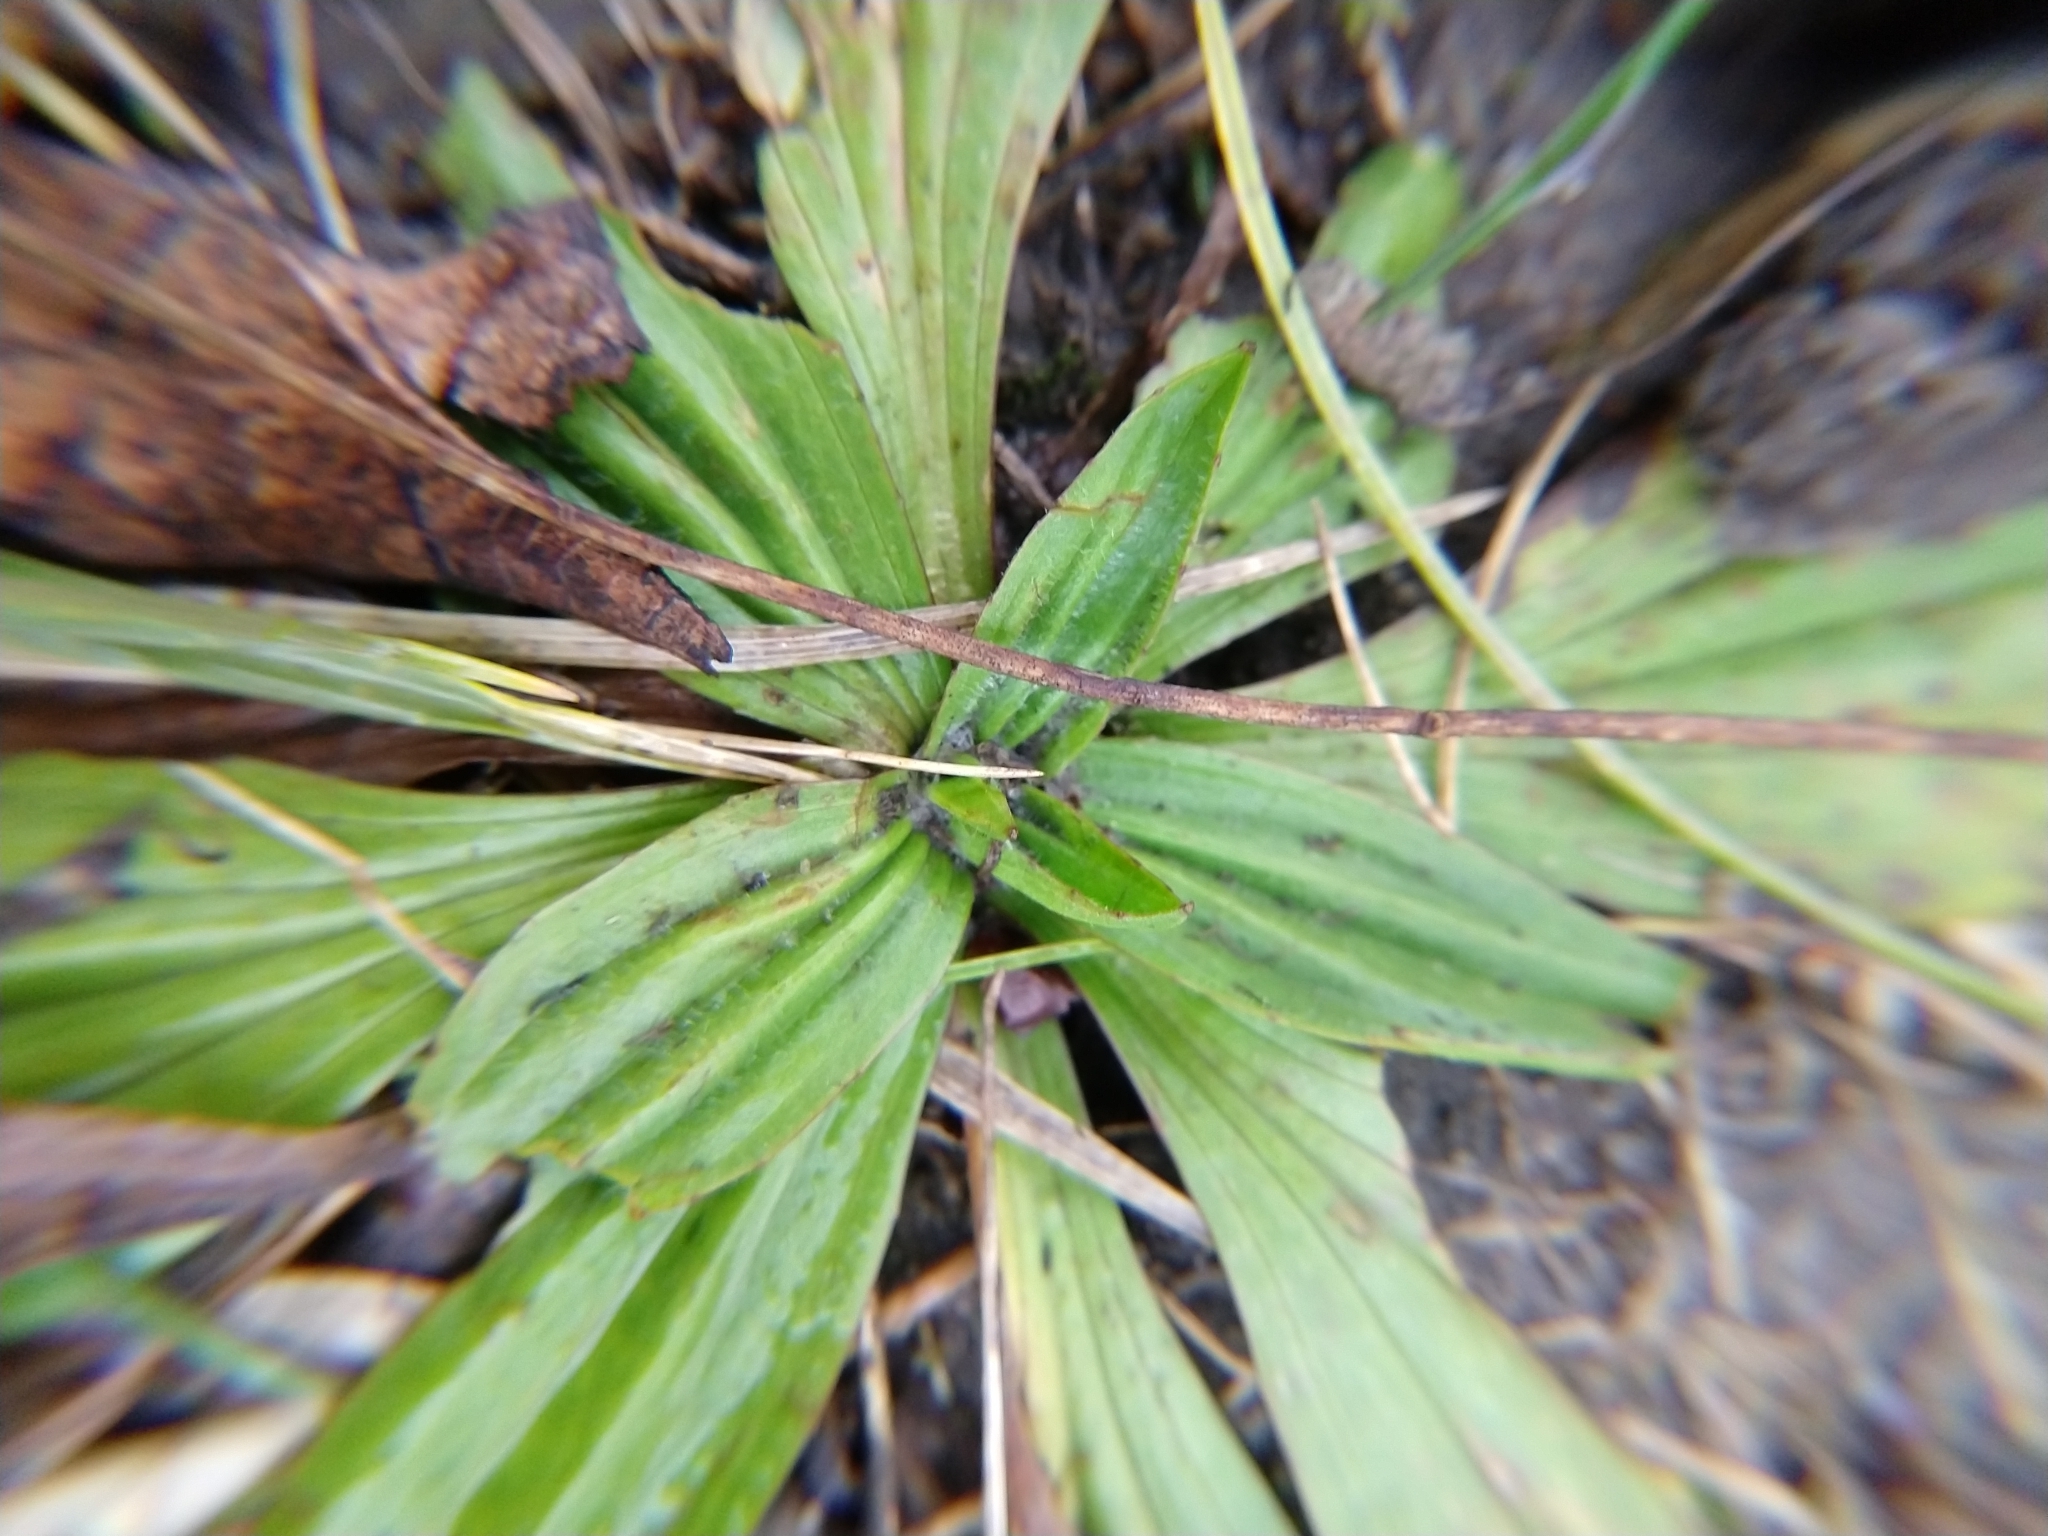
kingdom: Plantae
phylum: Tracheophyta
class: Magnoliopsida
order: Lamiales
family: Plantaginaceae
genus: Plantago
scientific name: Plantago lanceolata
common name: Ribwort plantain
